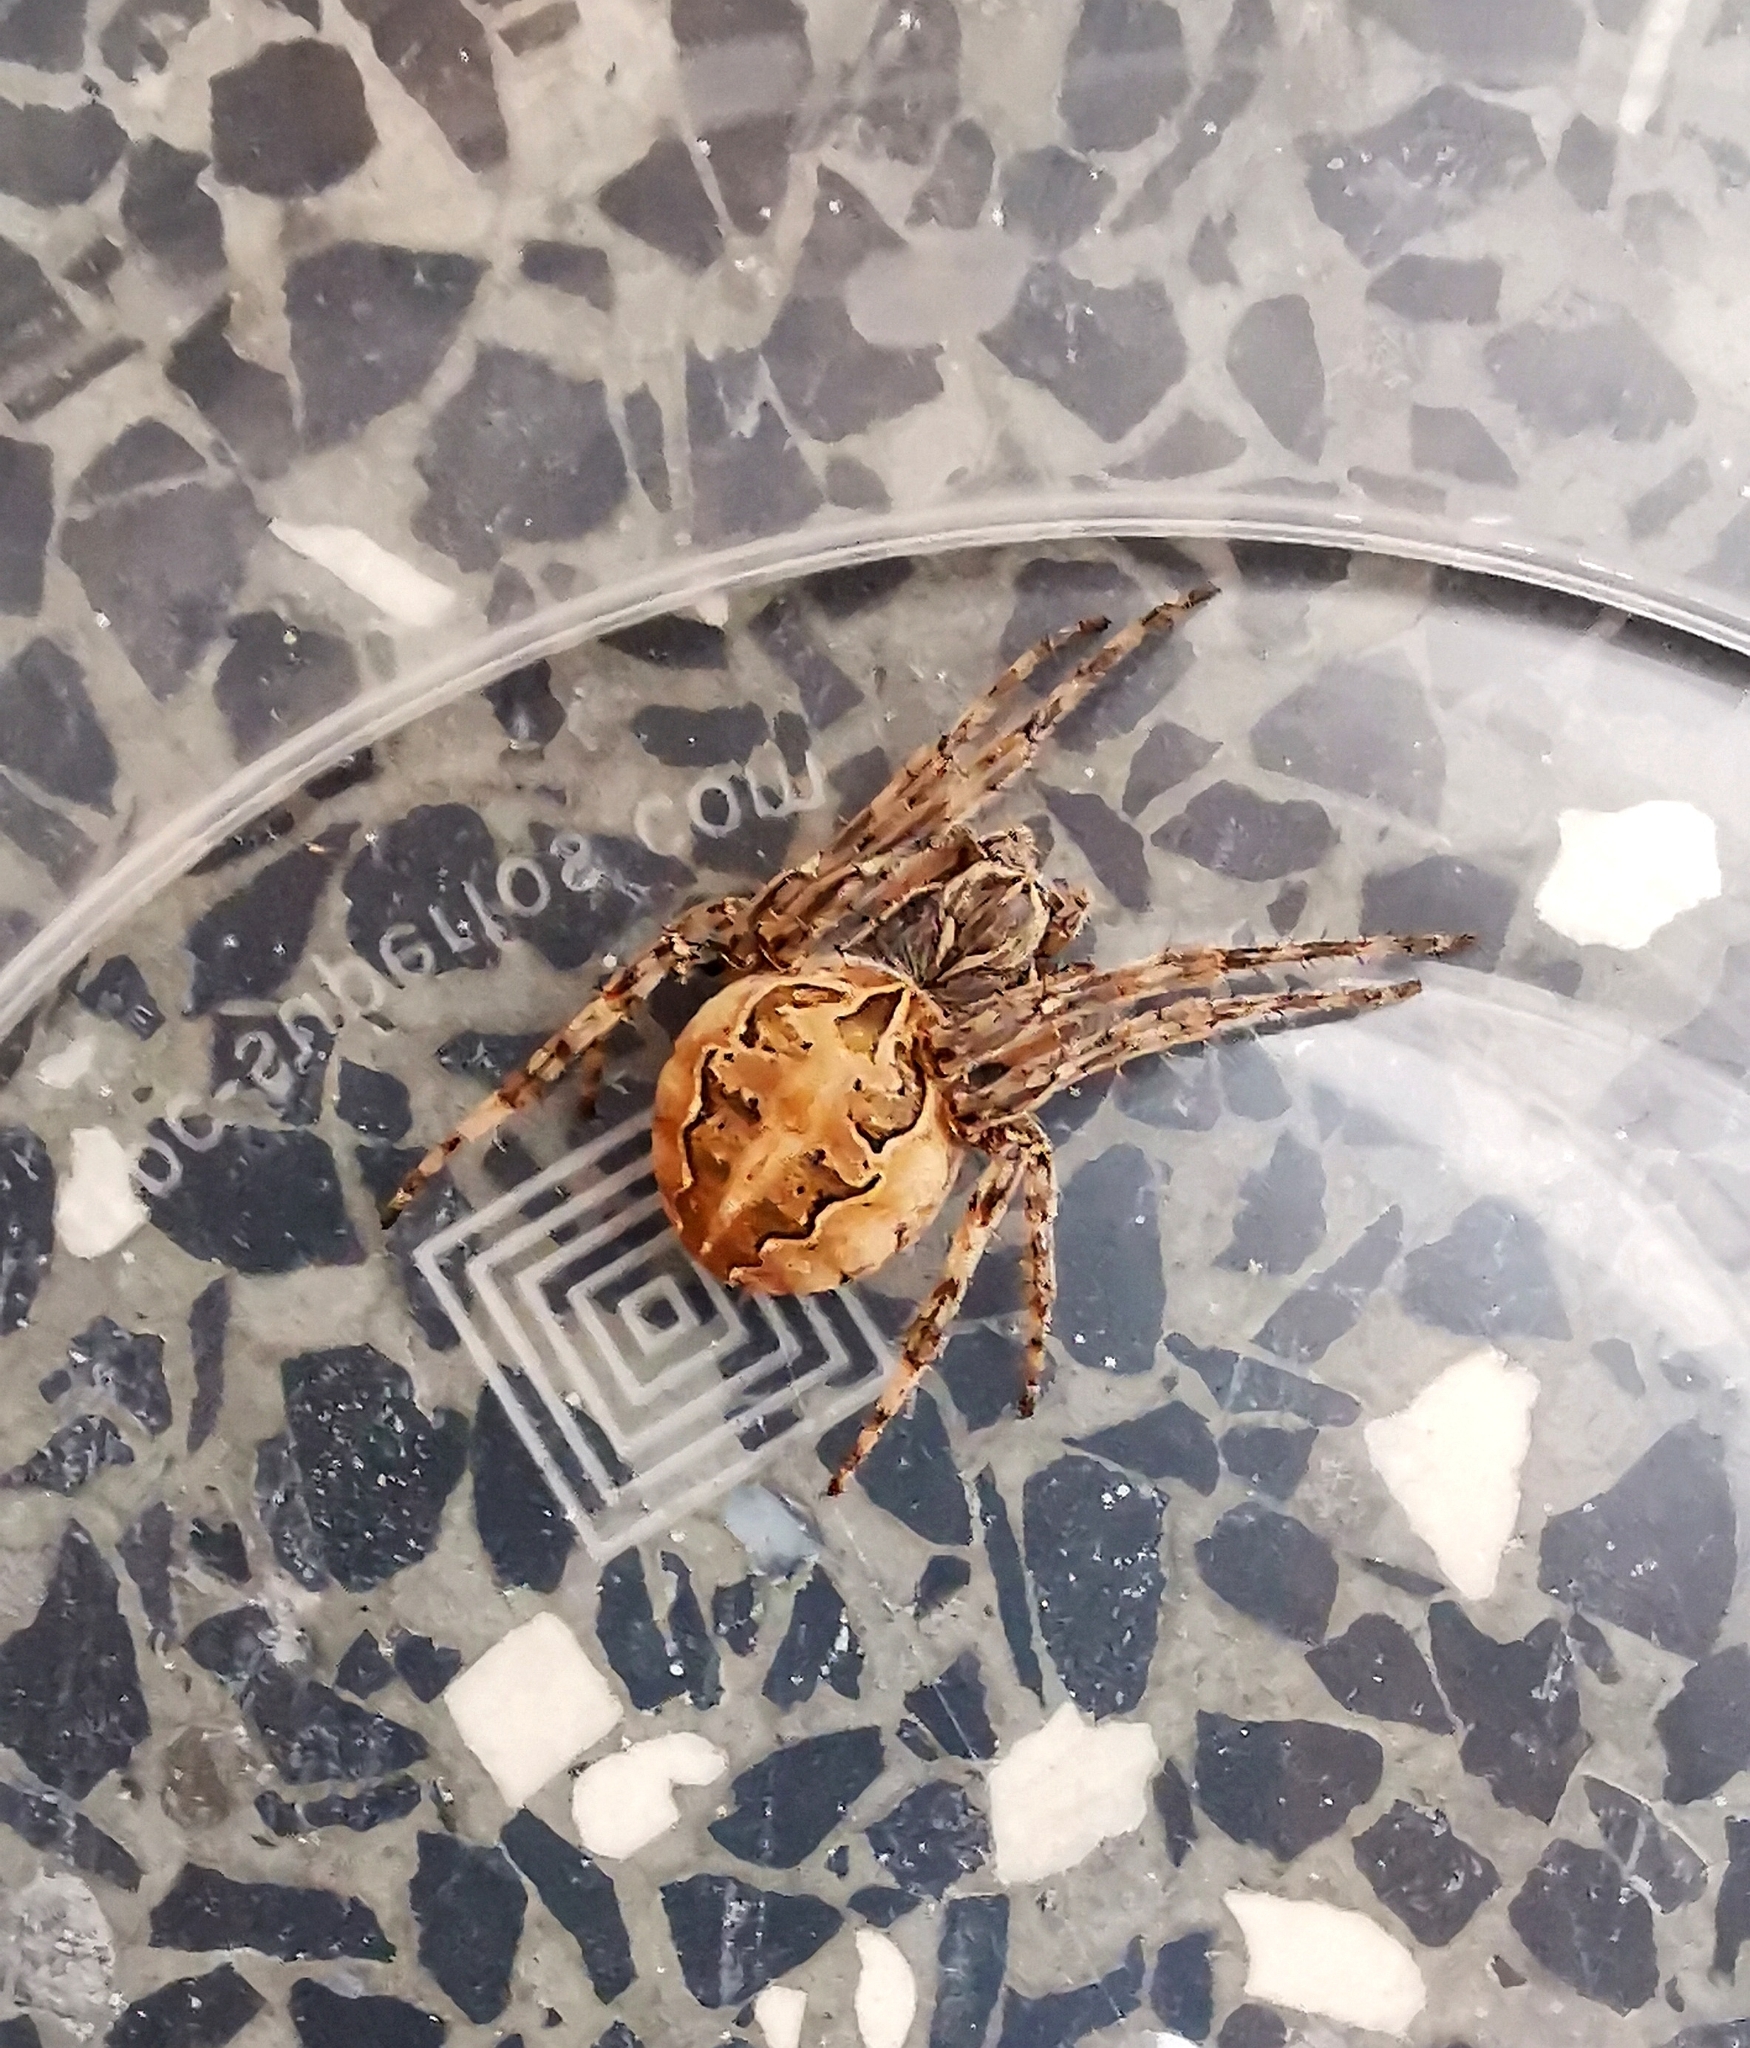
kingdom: Animalia
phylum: Arthropoda
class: Arachnida
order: Araneae
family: Araneidae
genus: Larinioides
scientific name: Larinioides sclopetarius
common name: Bridge orbweaver
